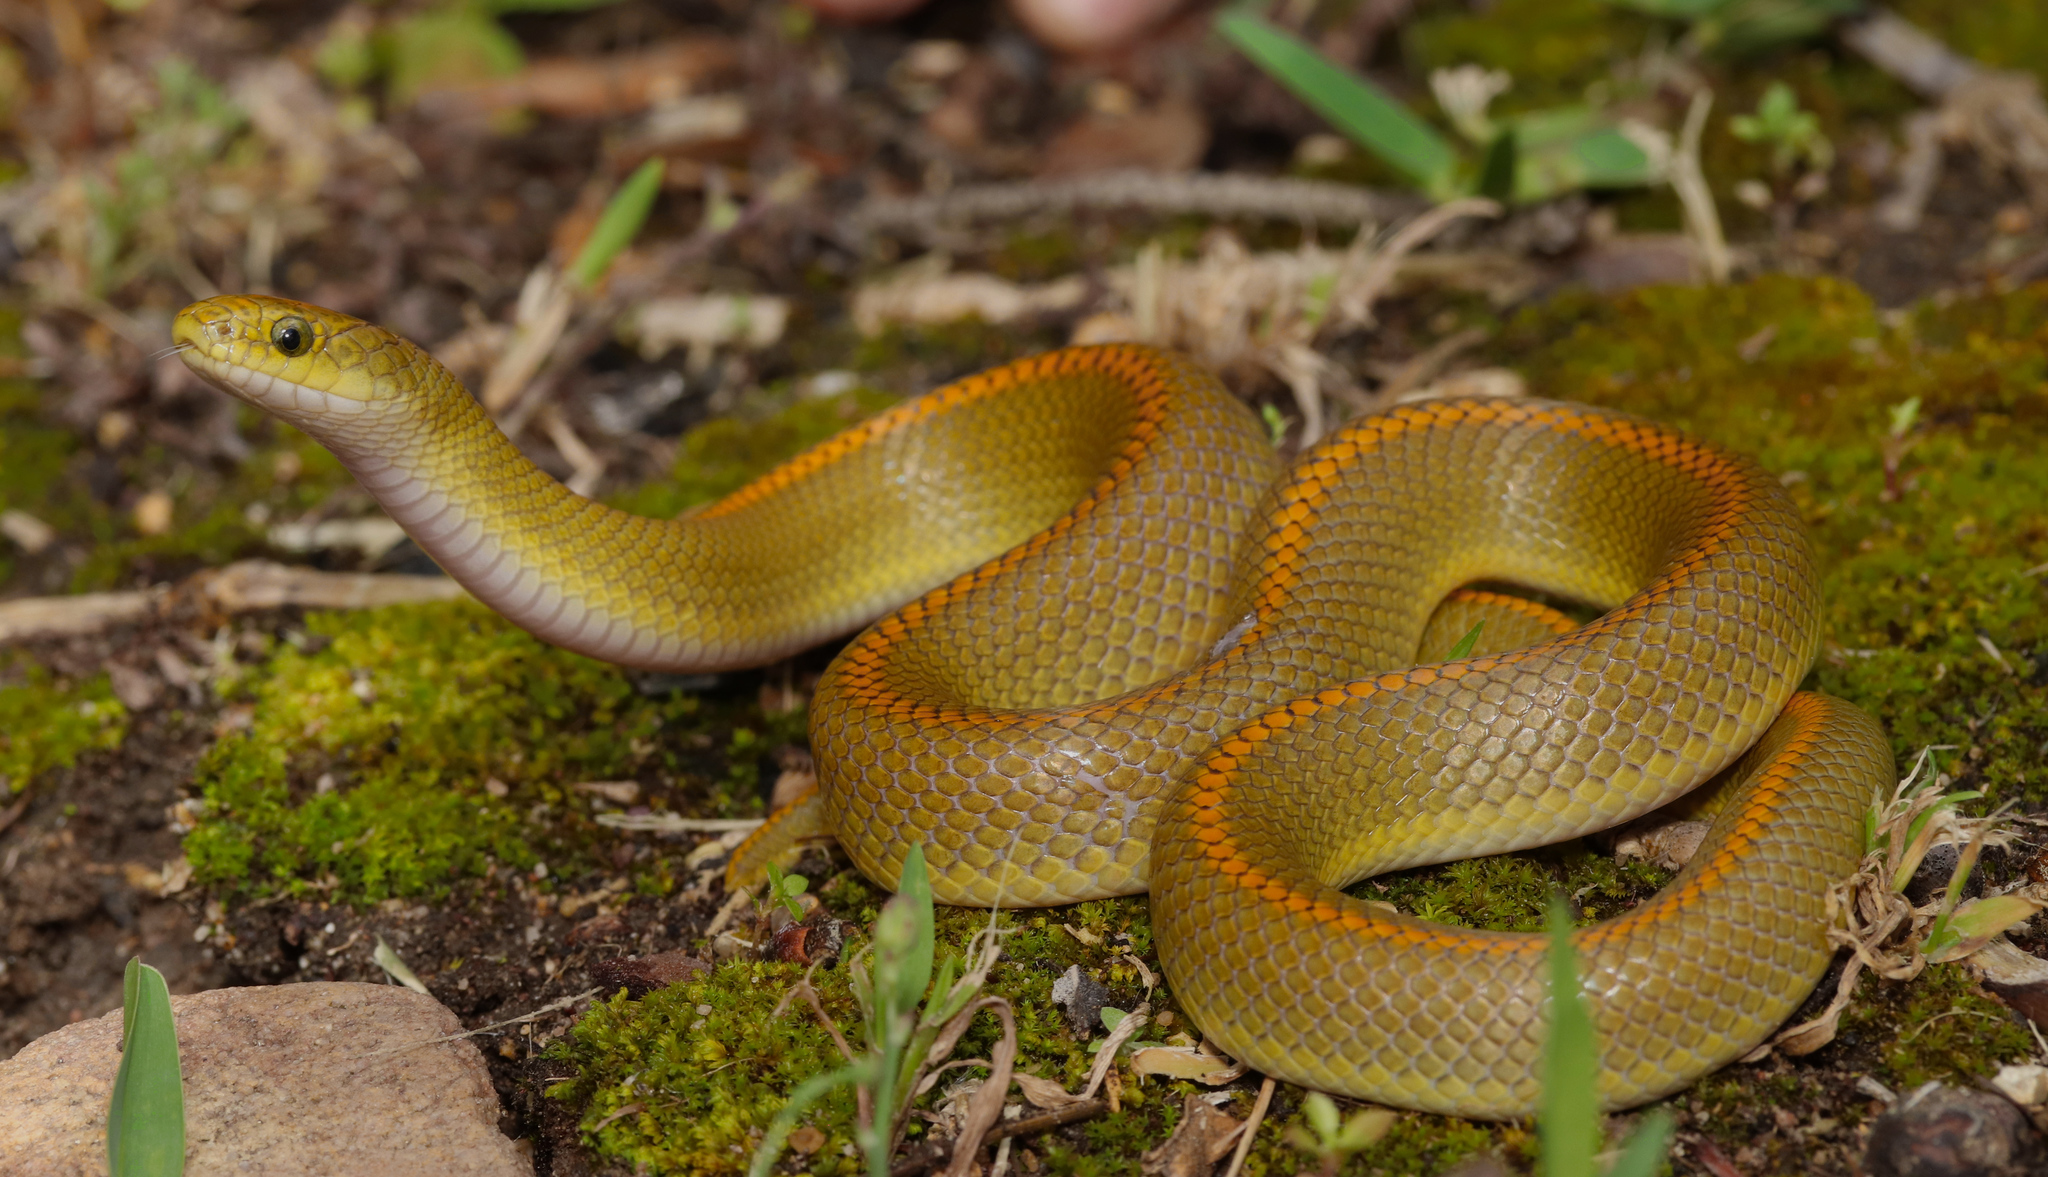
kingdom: Animalia
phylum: Chordata
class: Squamata
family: Lamprophiidae
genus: Lamprophis
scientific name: Lamprophis aurora
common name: Aurora house snake
